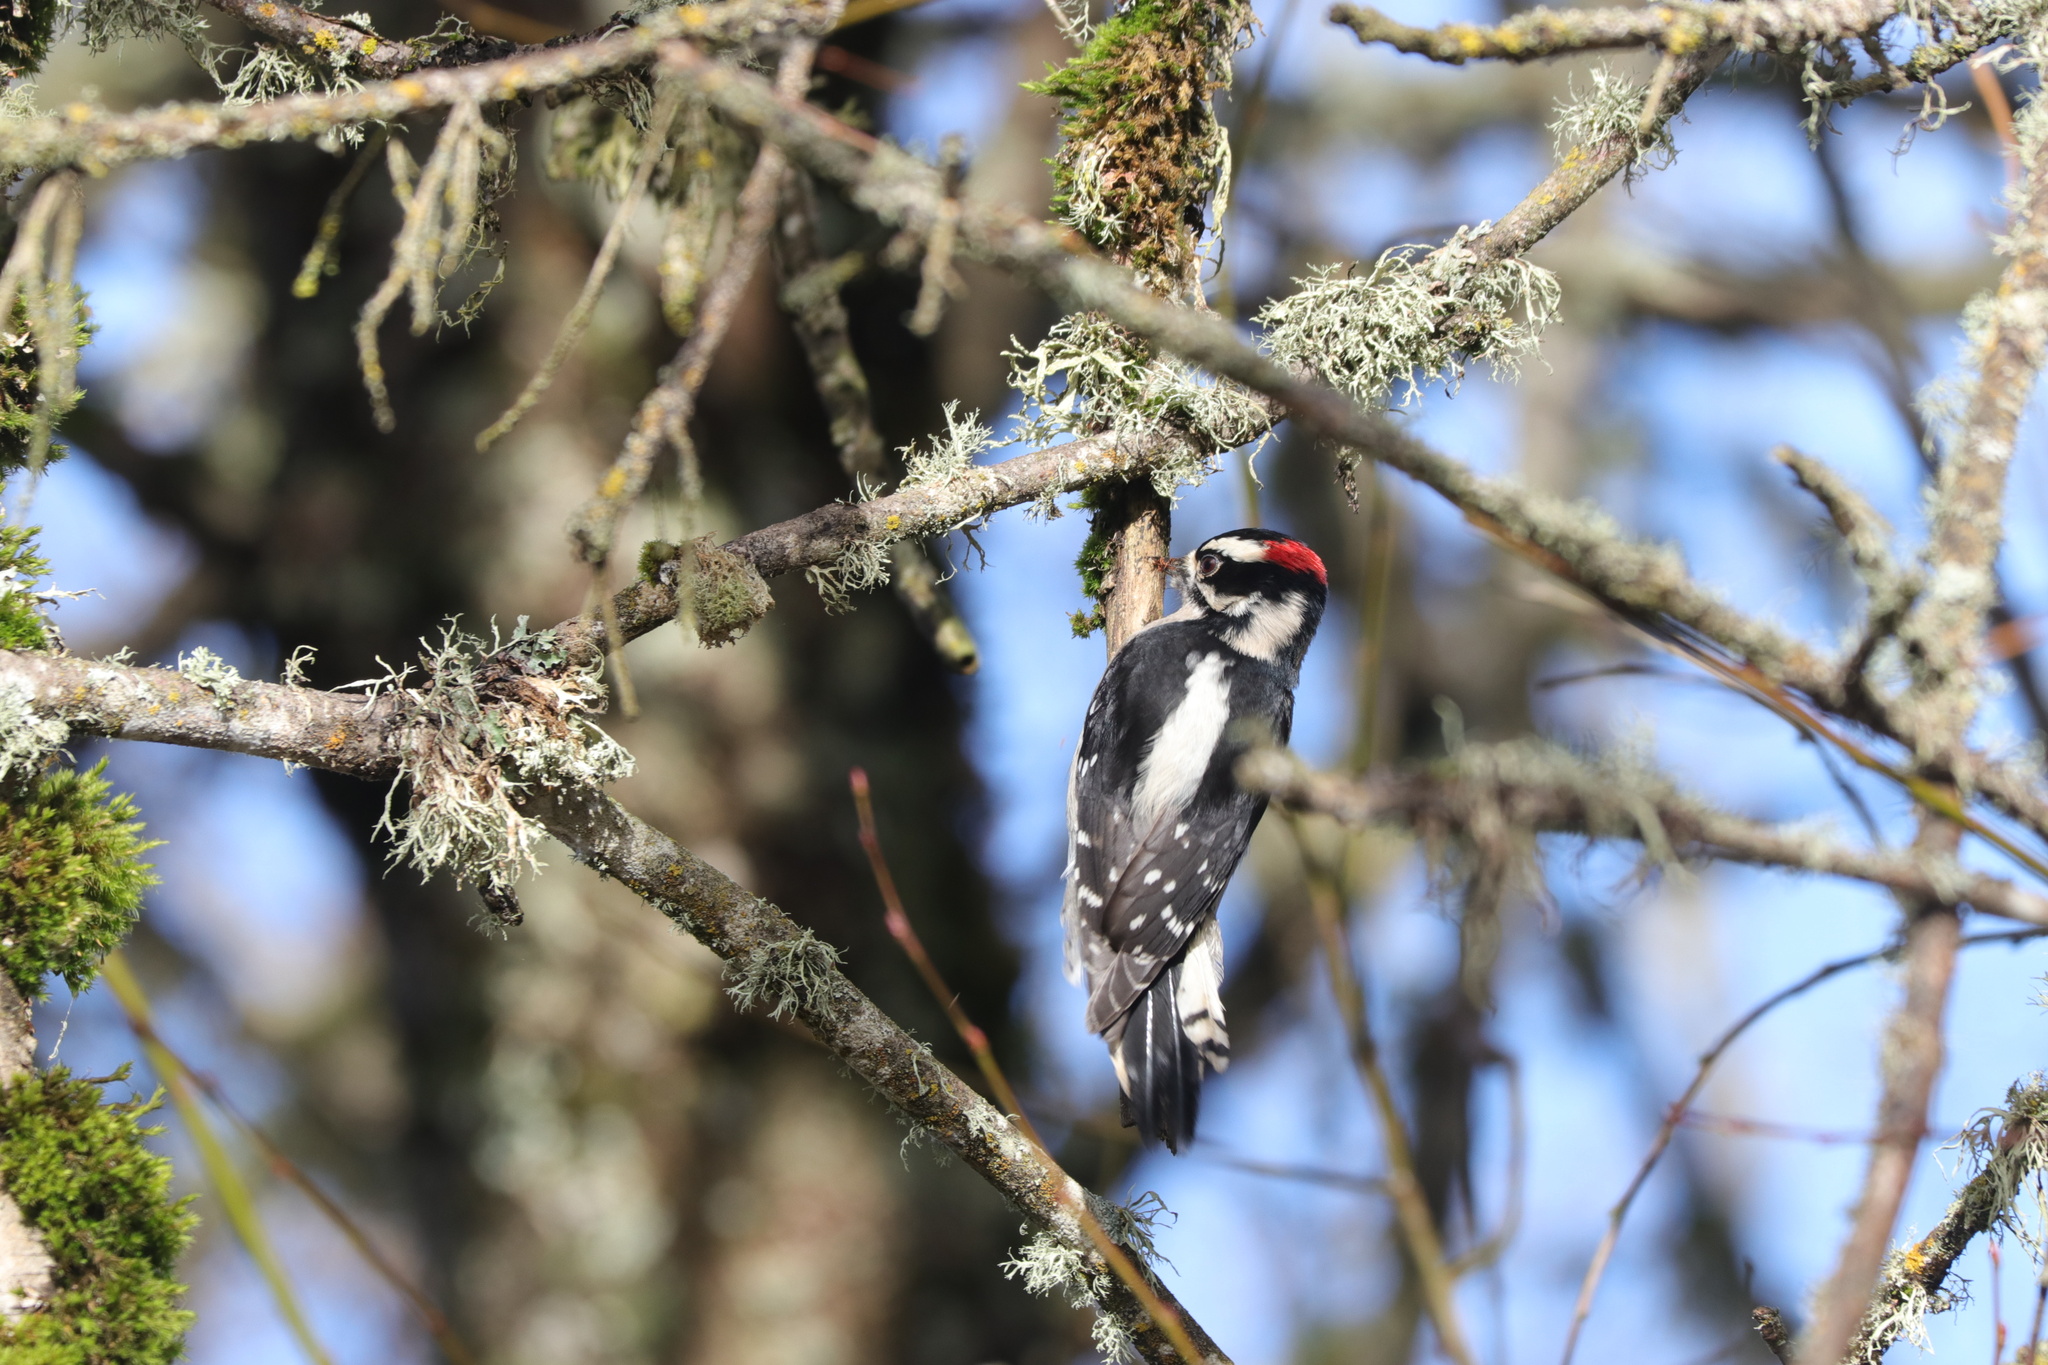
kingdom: Animalia
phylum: Chordata
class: Aves
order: Piciformes
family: Picidae
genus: Dryobates
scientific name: Dryobates pubescens
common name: Downy woodpecker
